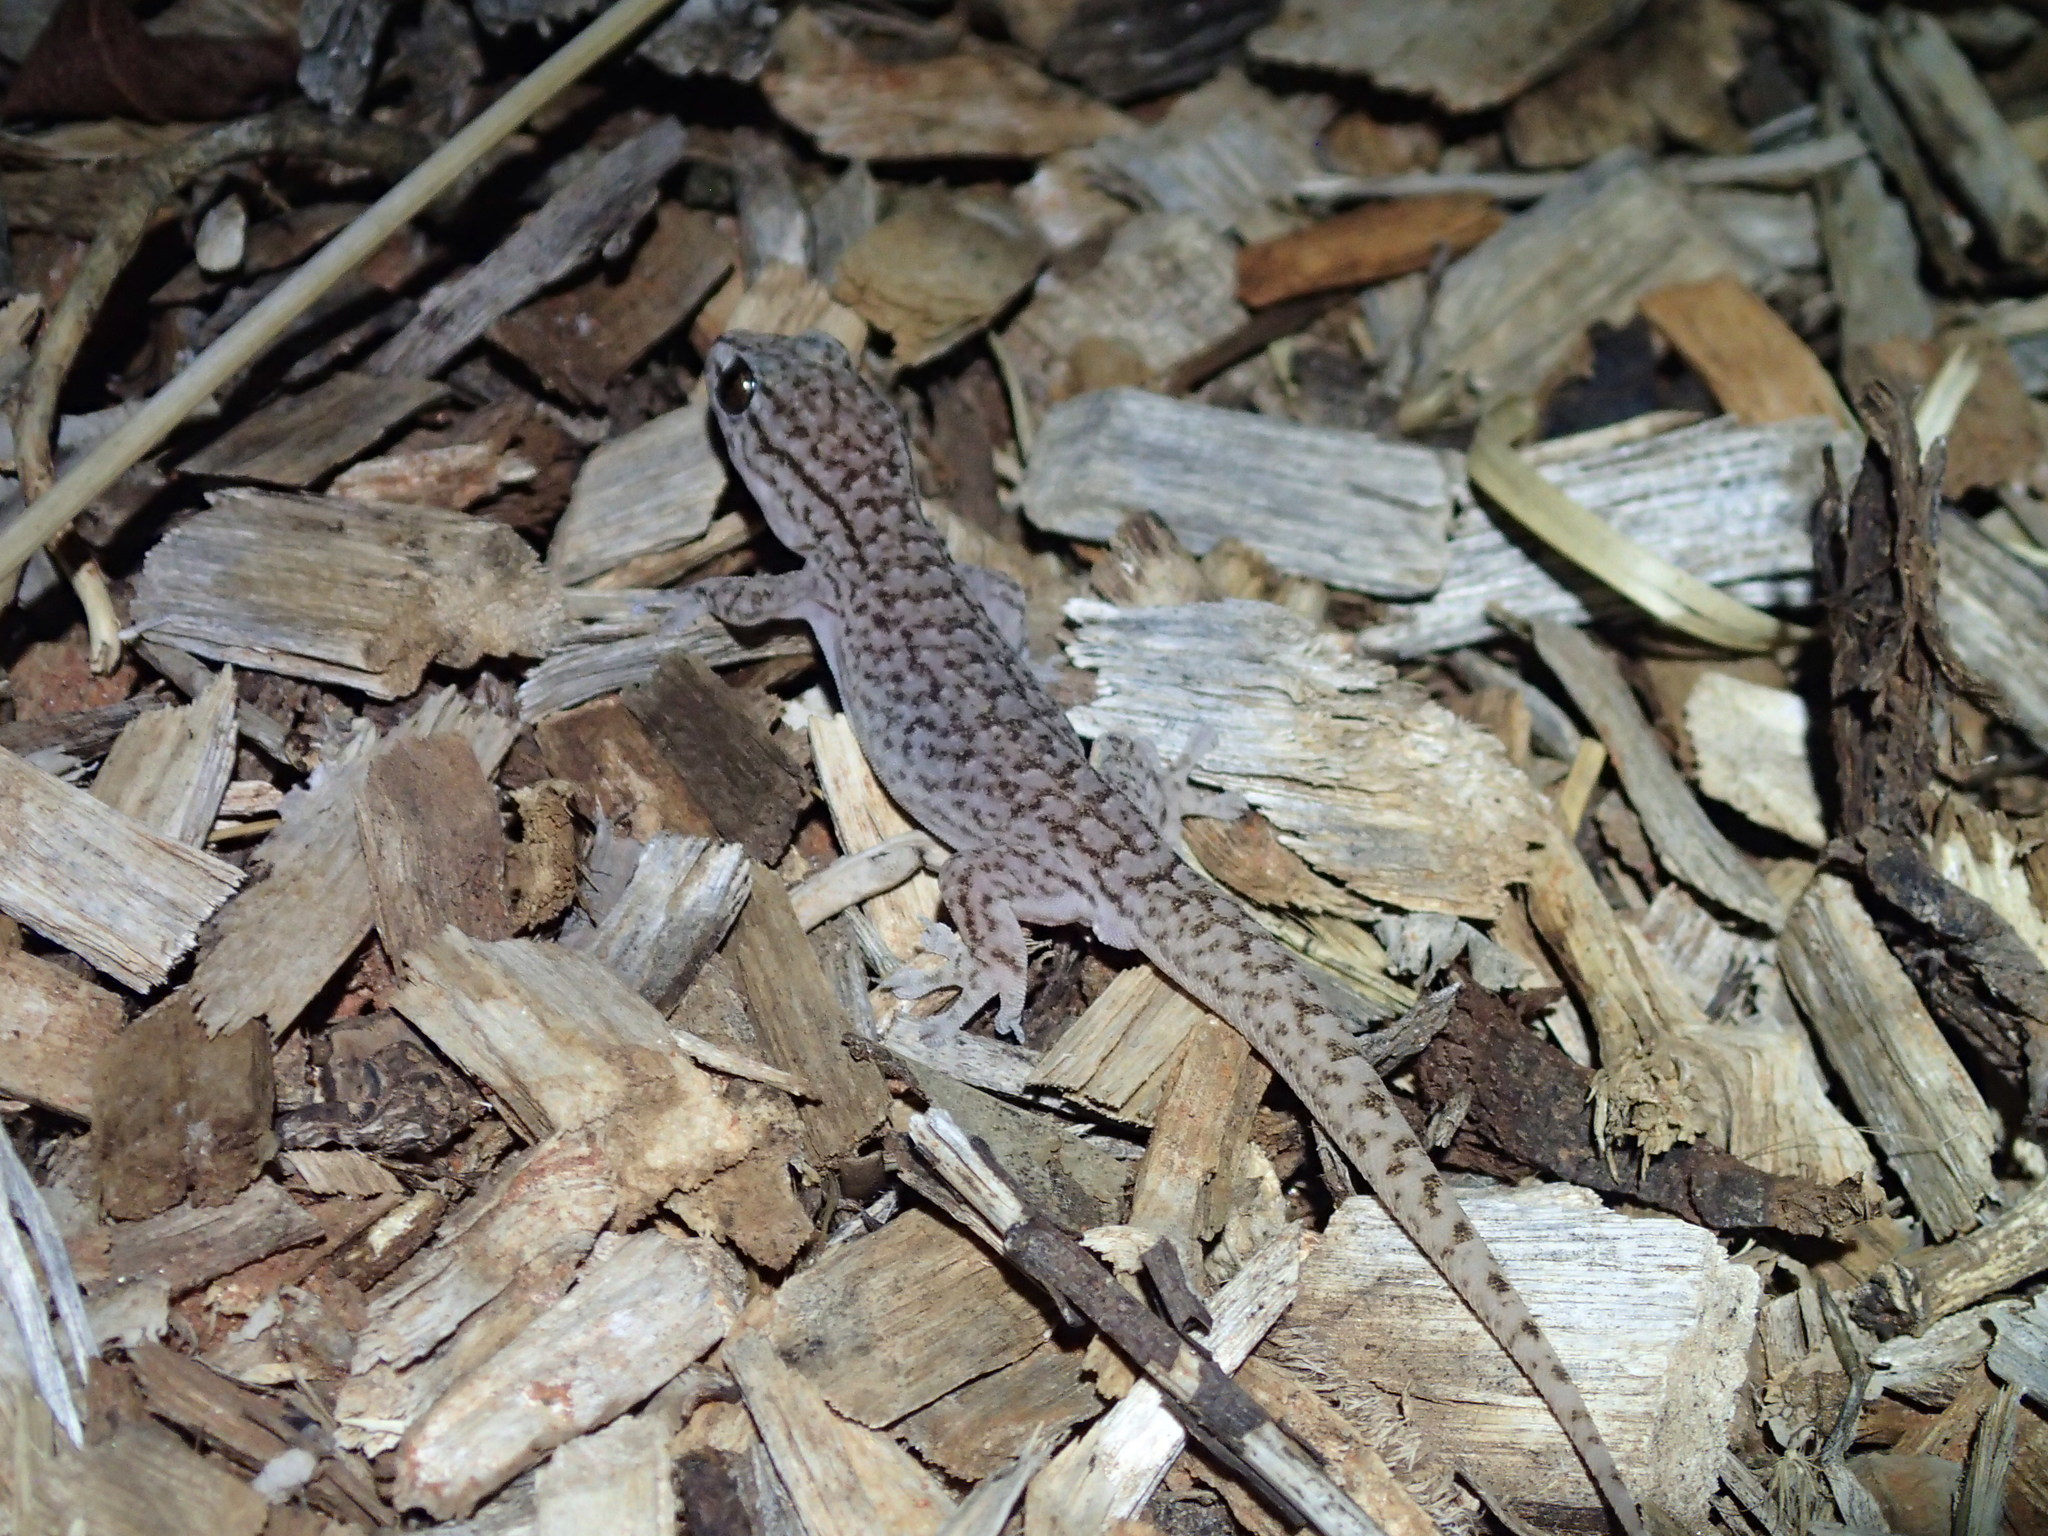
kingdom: Animalia
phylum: Chordata
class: Squamata
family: Gekkonidae
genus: Gehyra
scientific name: Gehyra versicolor
